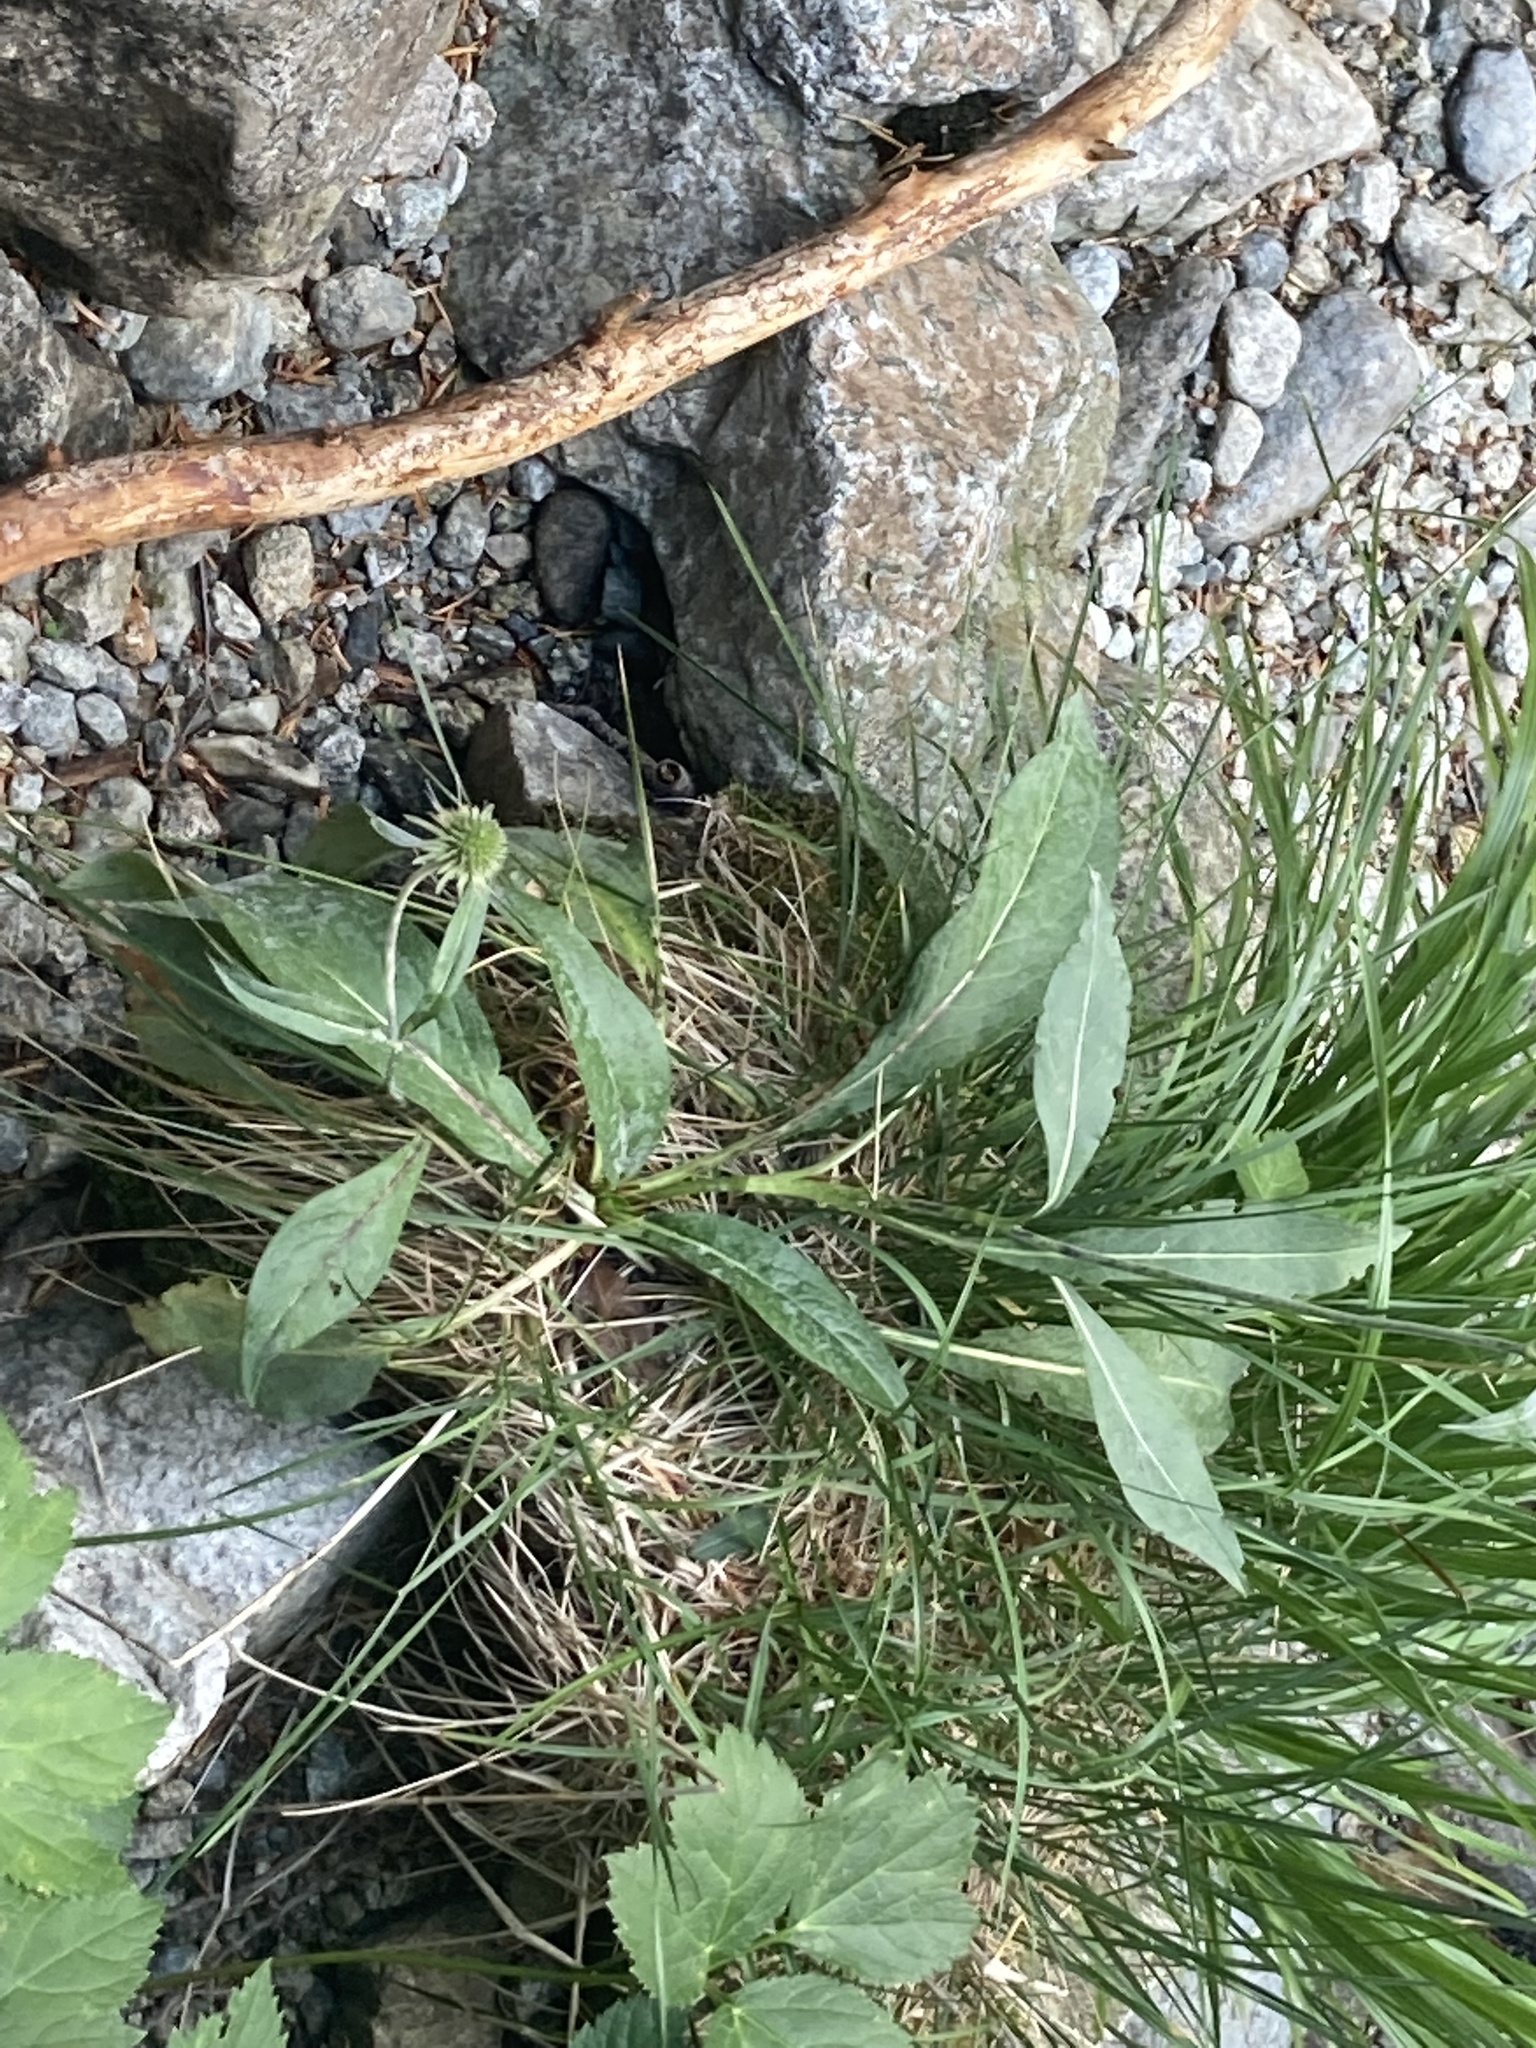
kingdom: Plantae
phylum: Tracheophyta
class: Magnoliopsida
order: Dipsacales
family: Caprifoliaceae
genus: Succisa
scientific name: Succisa pratensis
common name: Devil's-bit
